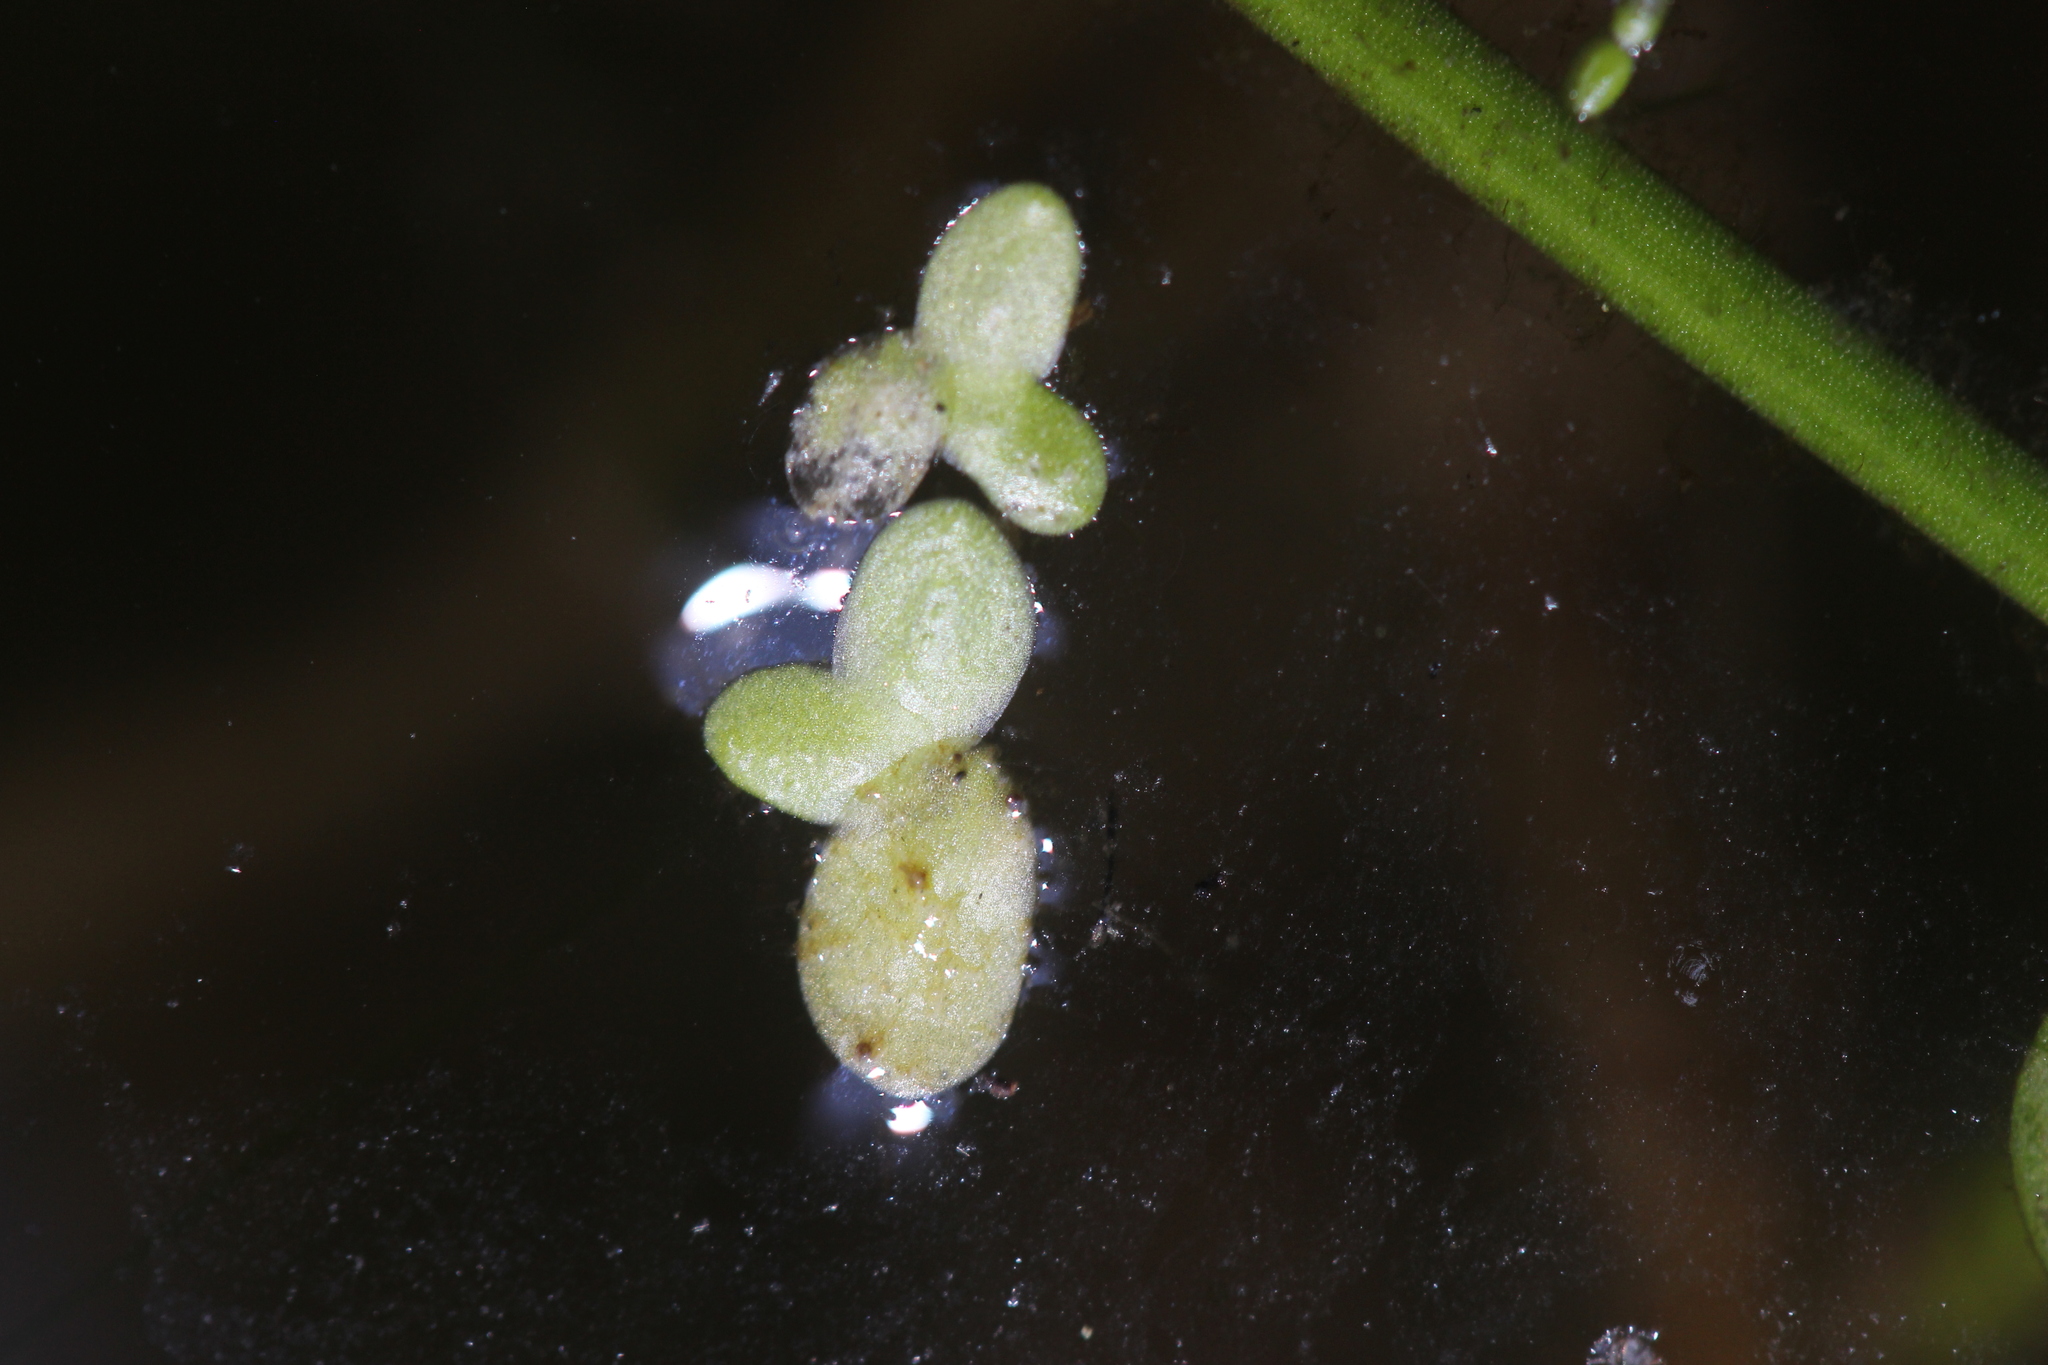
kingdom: Plantae
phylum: Tracheophyta
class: Liliopsida
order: Alismatales
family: Araceae
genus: Spirodela
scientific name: Spirodela punctata
